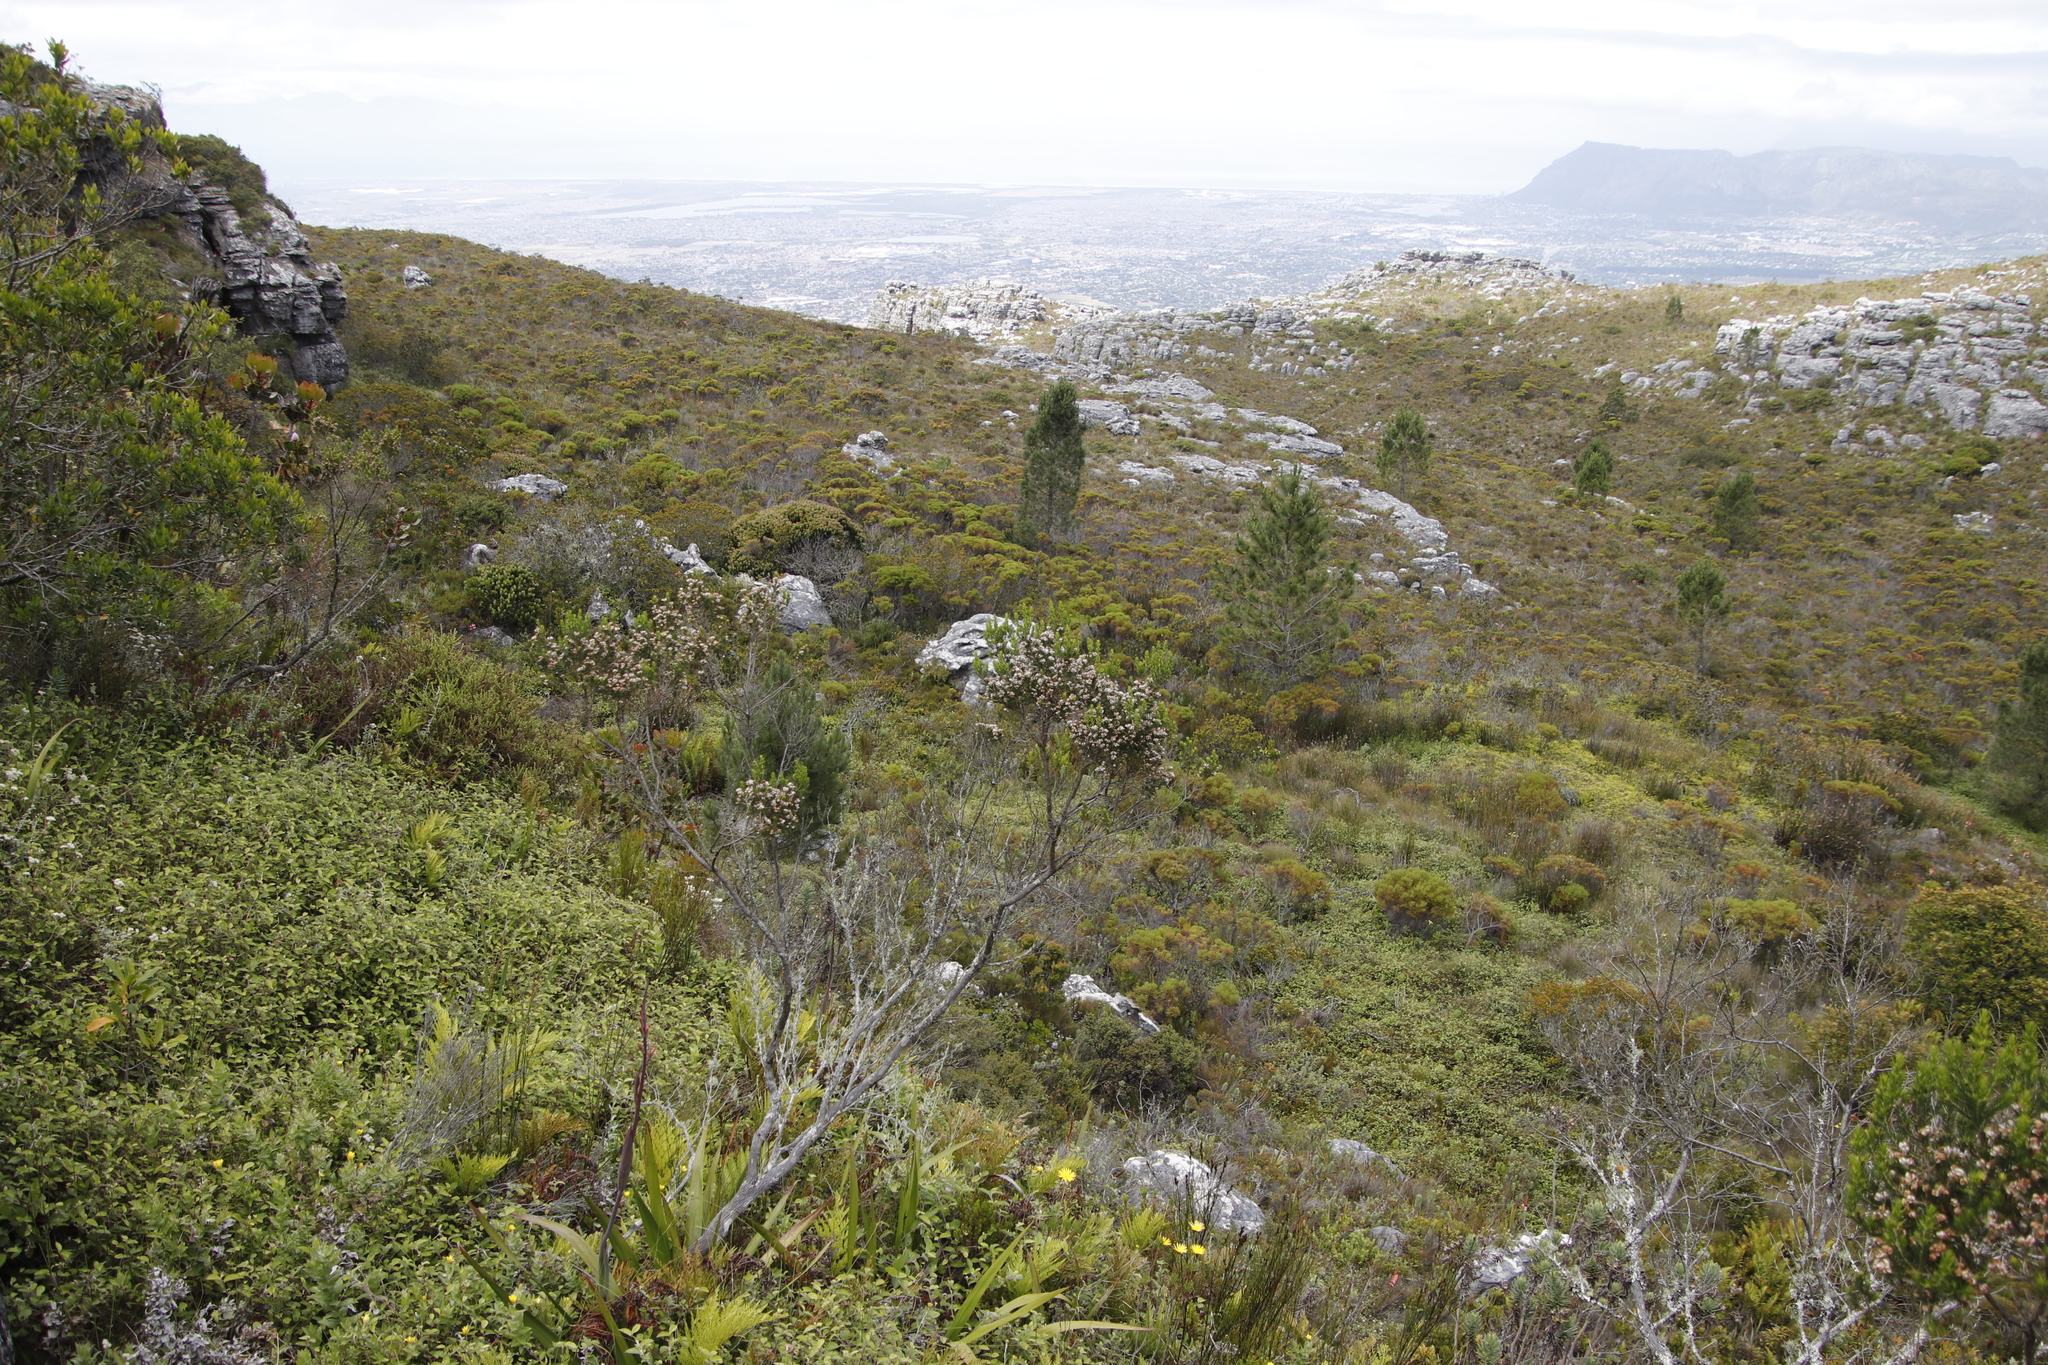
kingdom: Plantae
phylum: Tracheophyta
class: Pinopsida
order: Pinales
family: Pinaceae
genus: Pinus
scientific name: Pinus radiata
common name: Monterey pine
